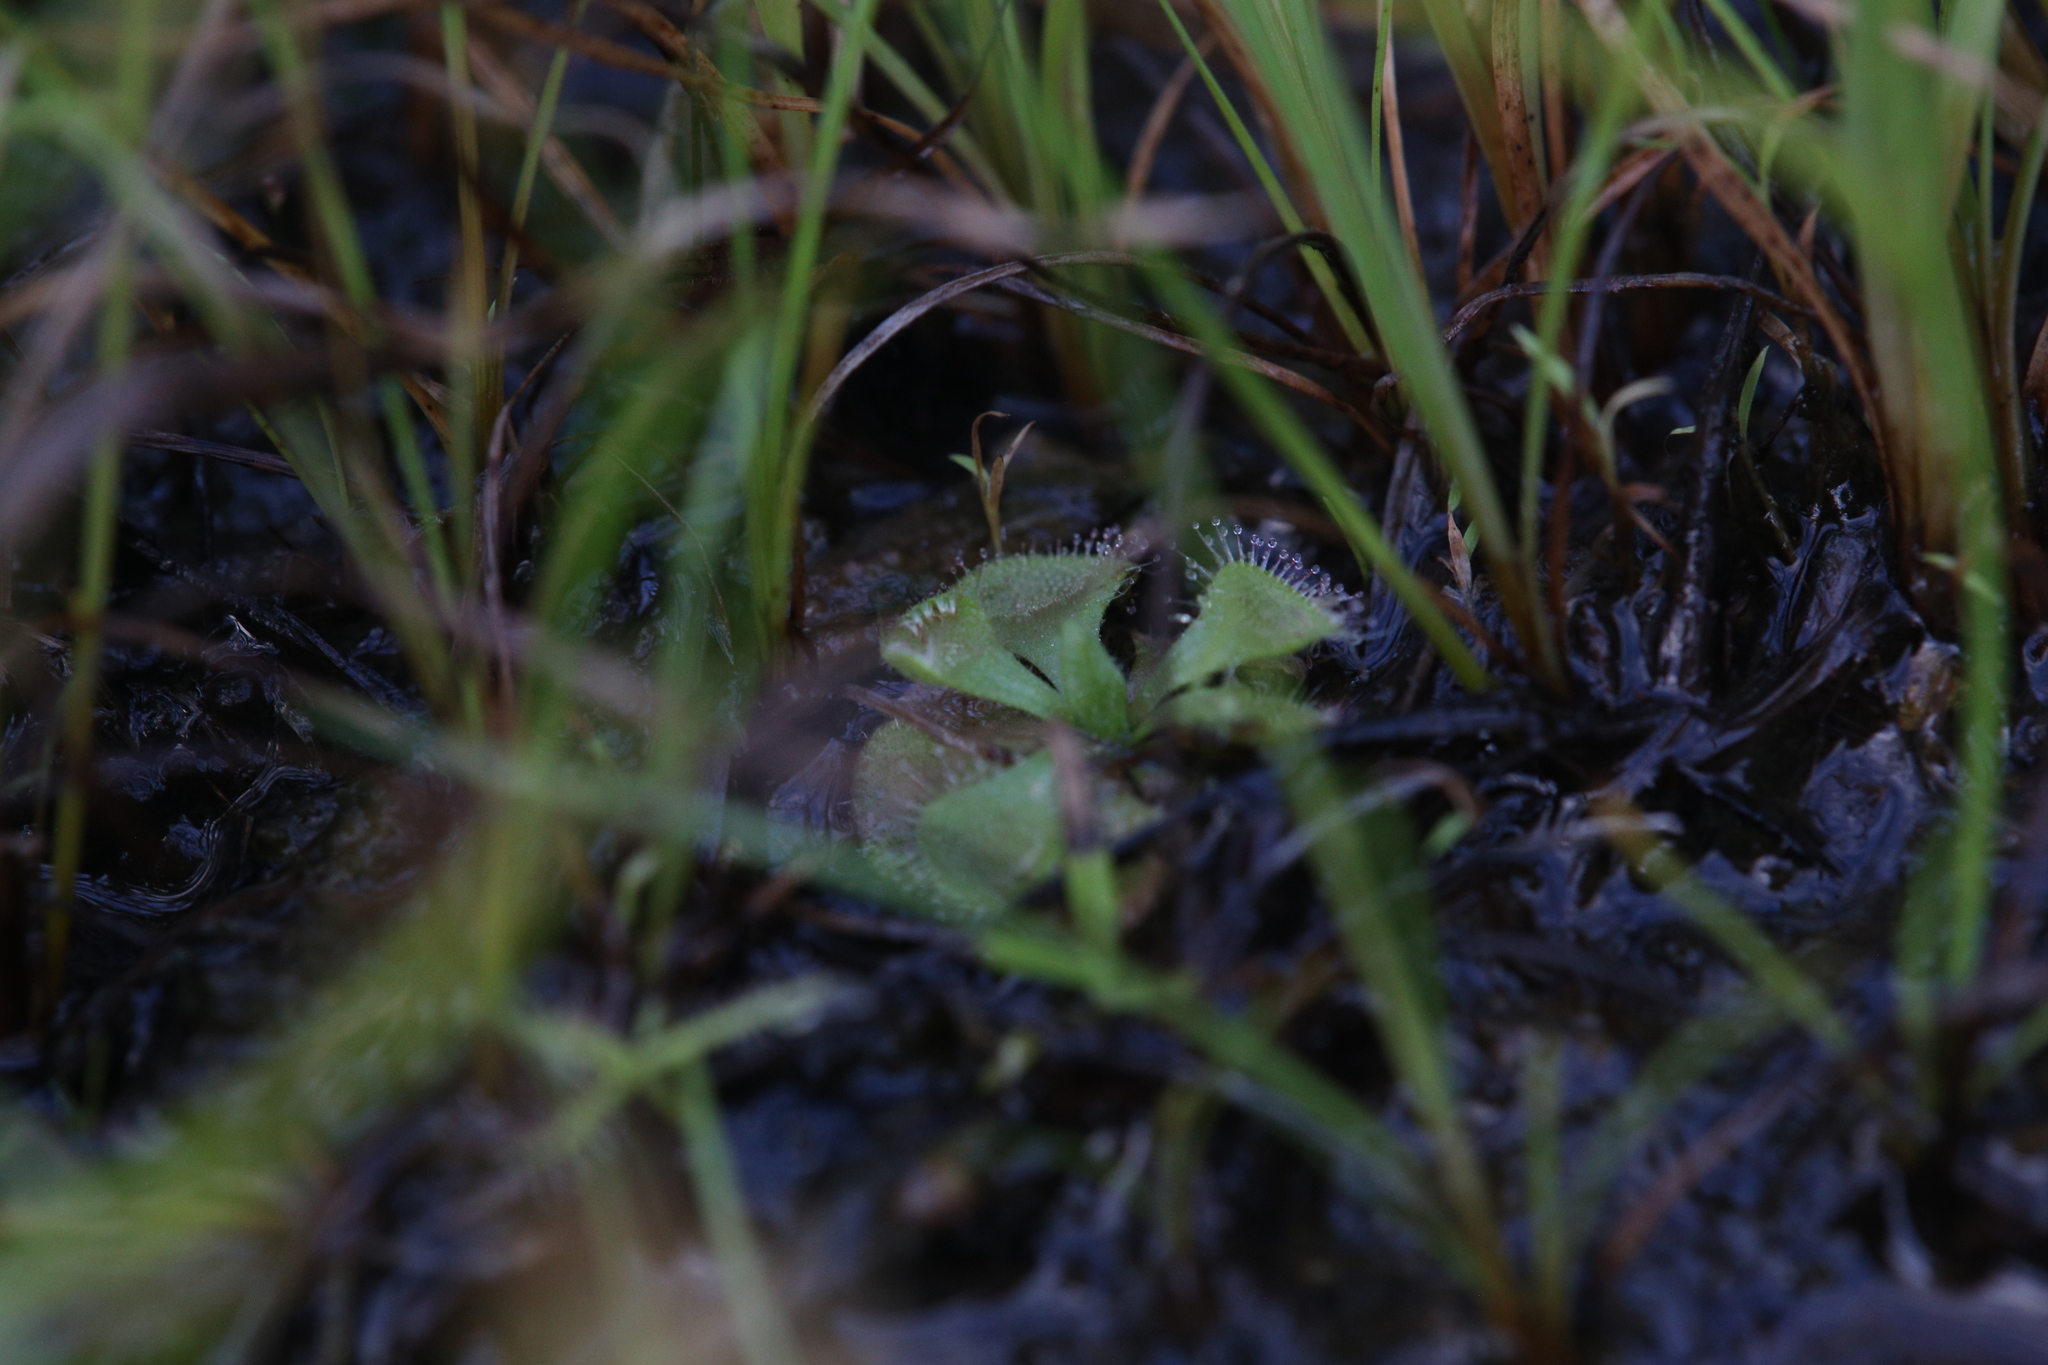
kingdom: Plantae
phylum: Tracheophyta
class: Magnoliopsida
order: Caryophyllales
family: Droseraceae
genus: Drosera
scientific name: Drosera spatulata
